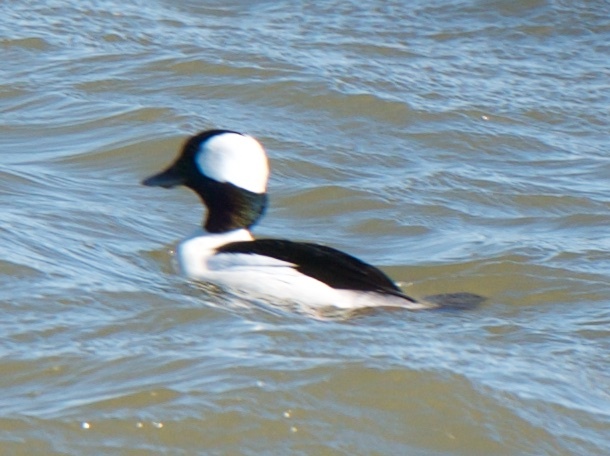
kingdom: Animalia
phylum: Chordata
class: Aves
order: Anseriformes
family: Anatidae
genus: Bucephala
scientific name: Bucephala albeola
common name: Bufflehead
